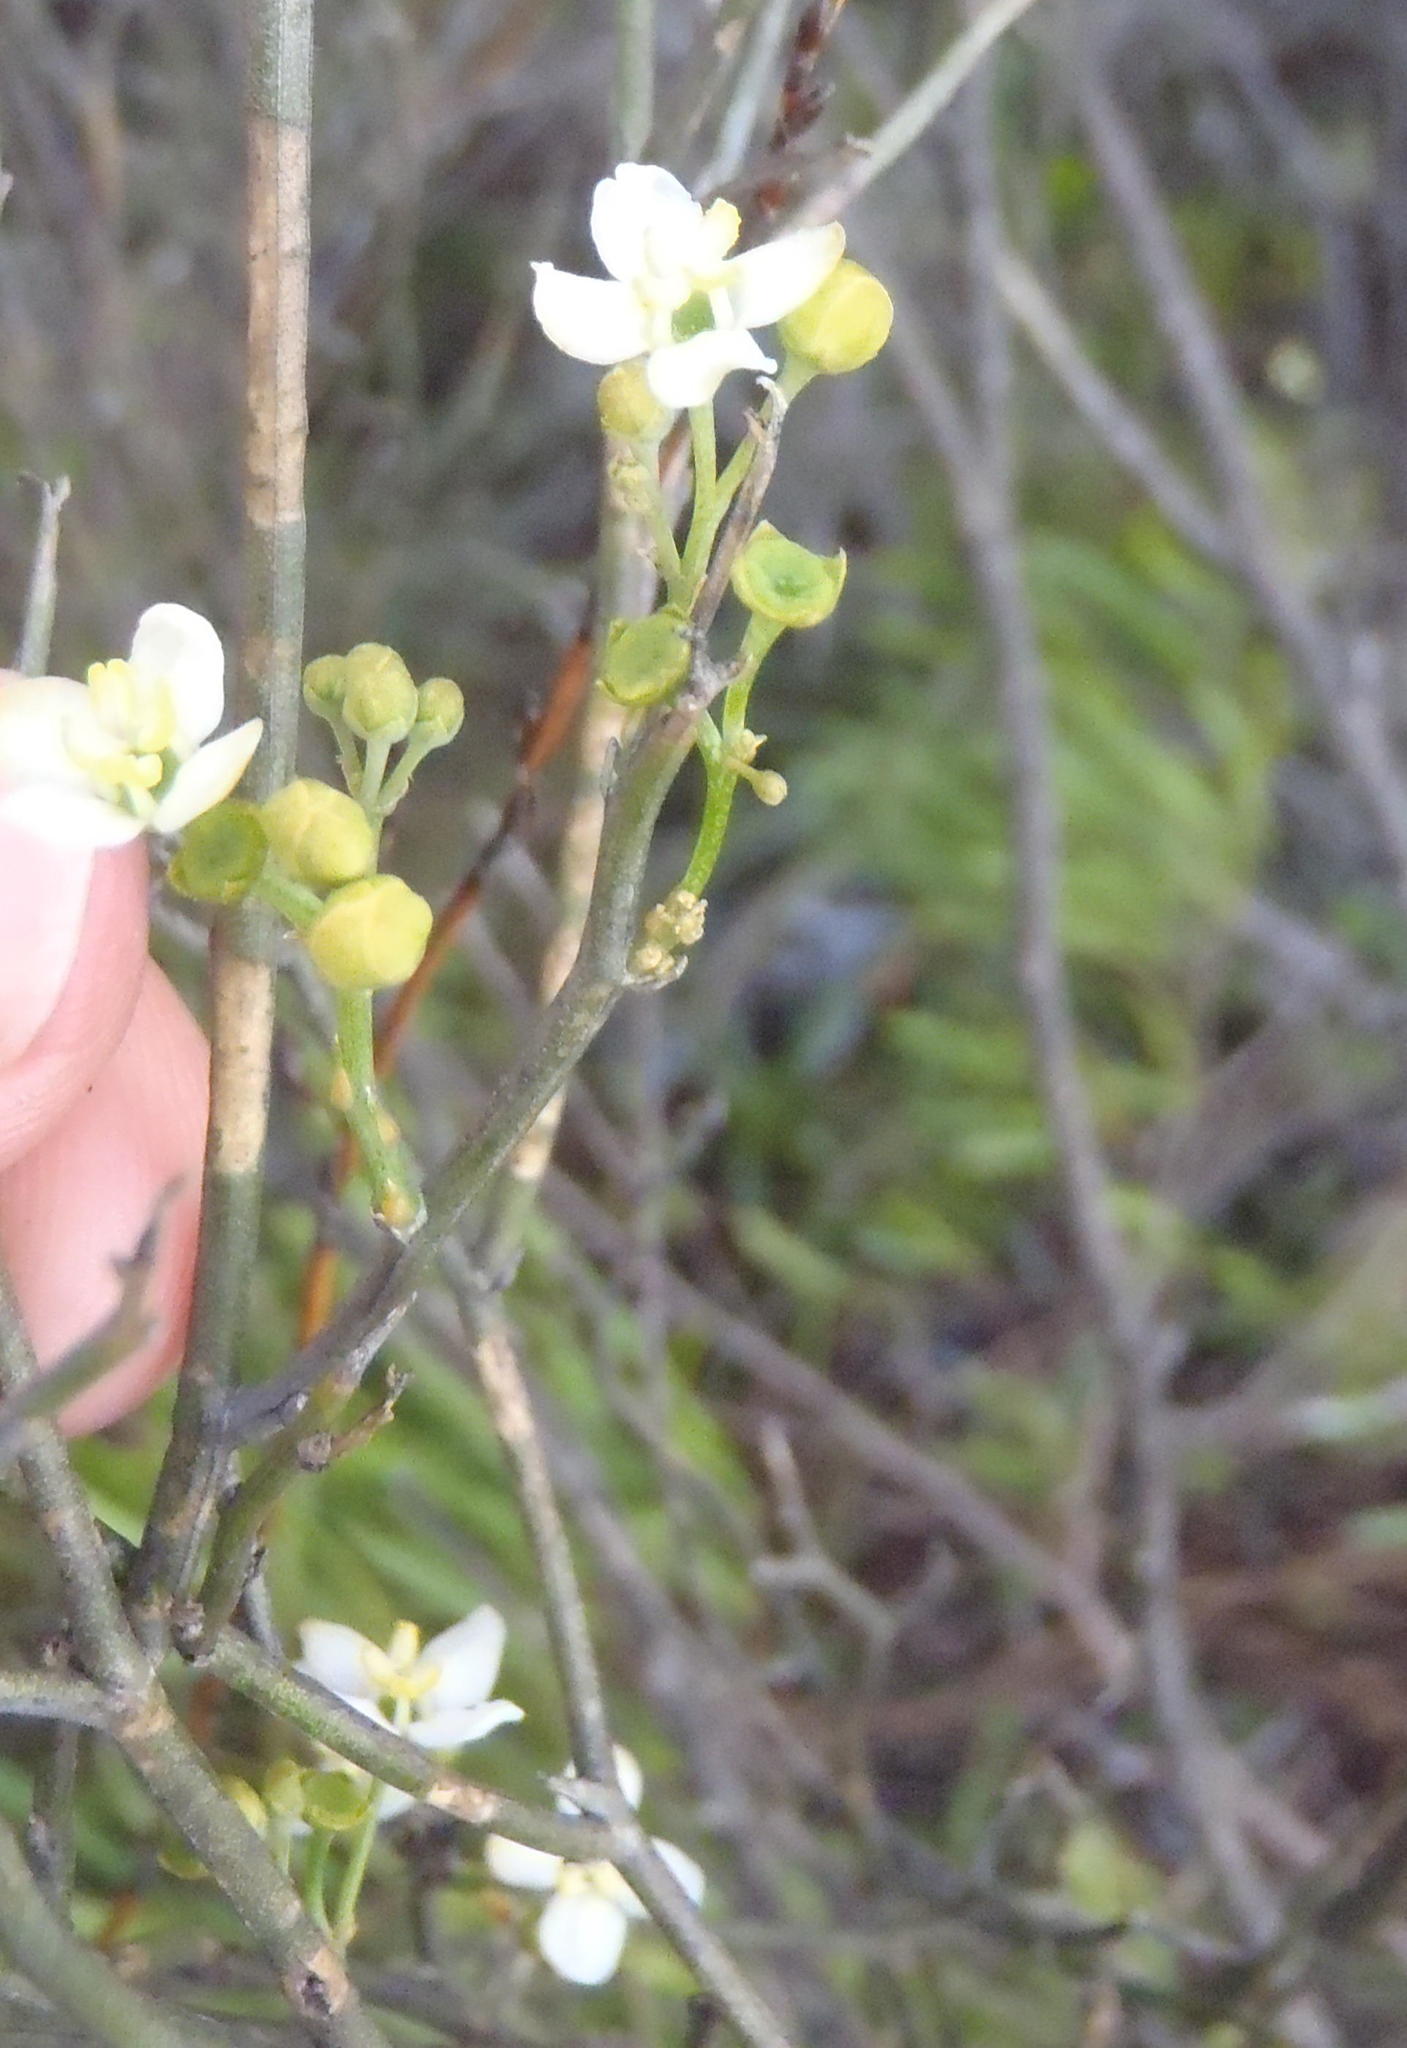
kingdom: Plantae
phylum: Tracheophyta
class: Magnoliopsida
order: Solanales
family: Montiniaceae
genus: Montinia
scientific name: Montinia caryophyllacea
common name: Wild clove-bush
